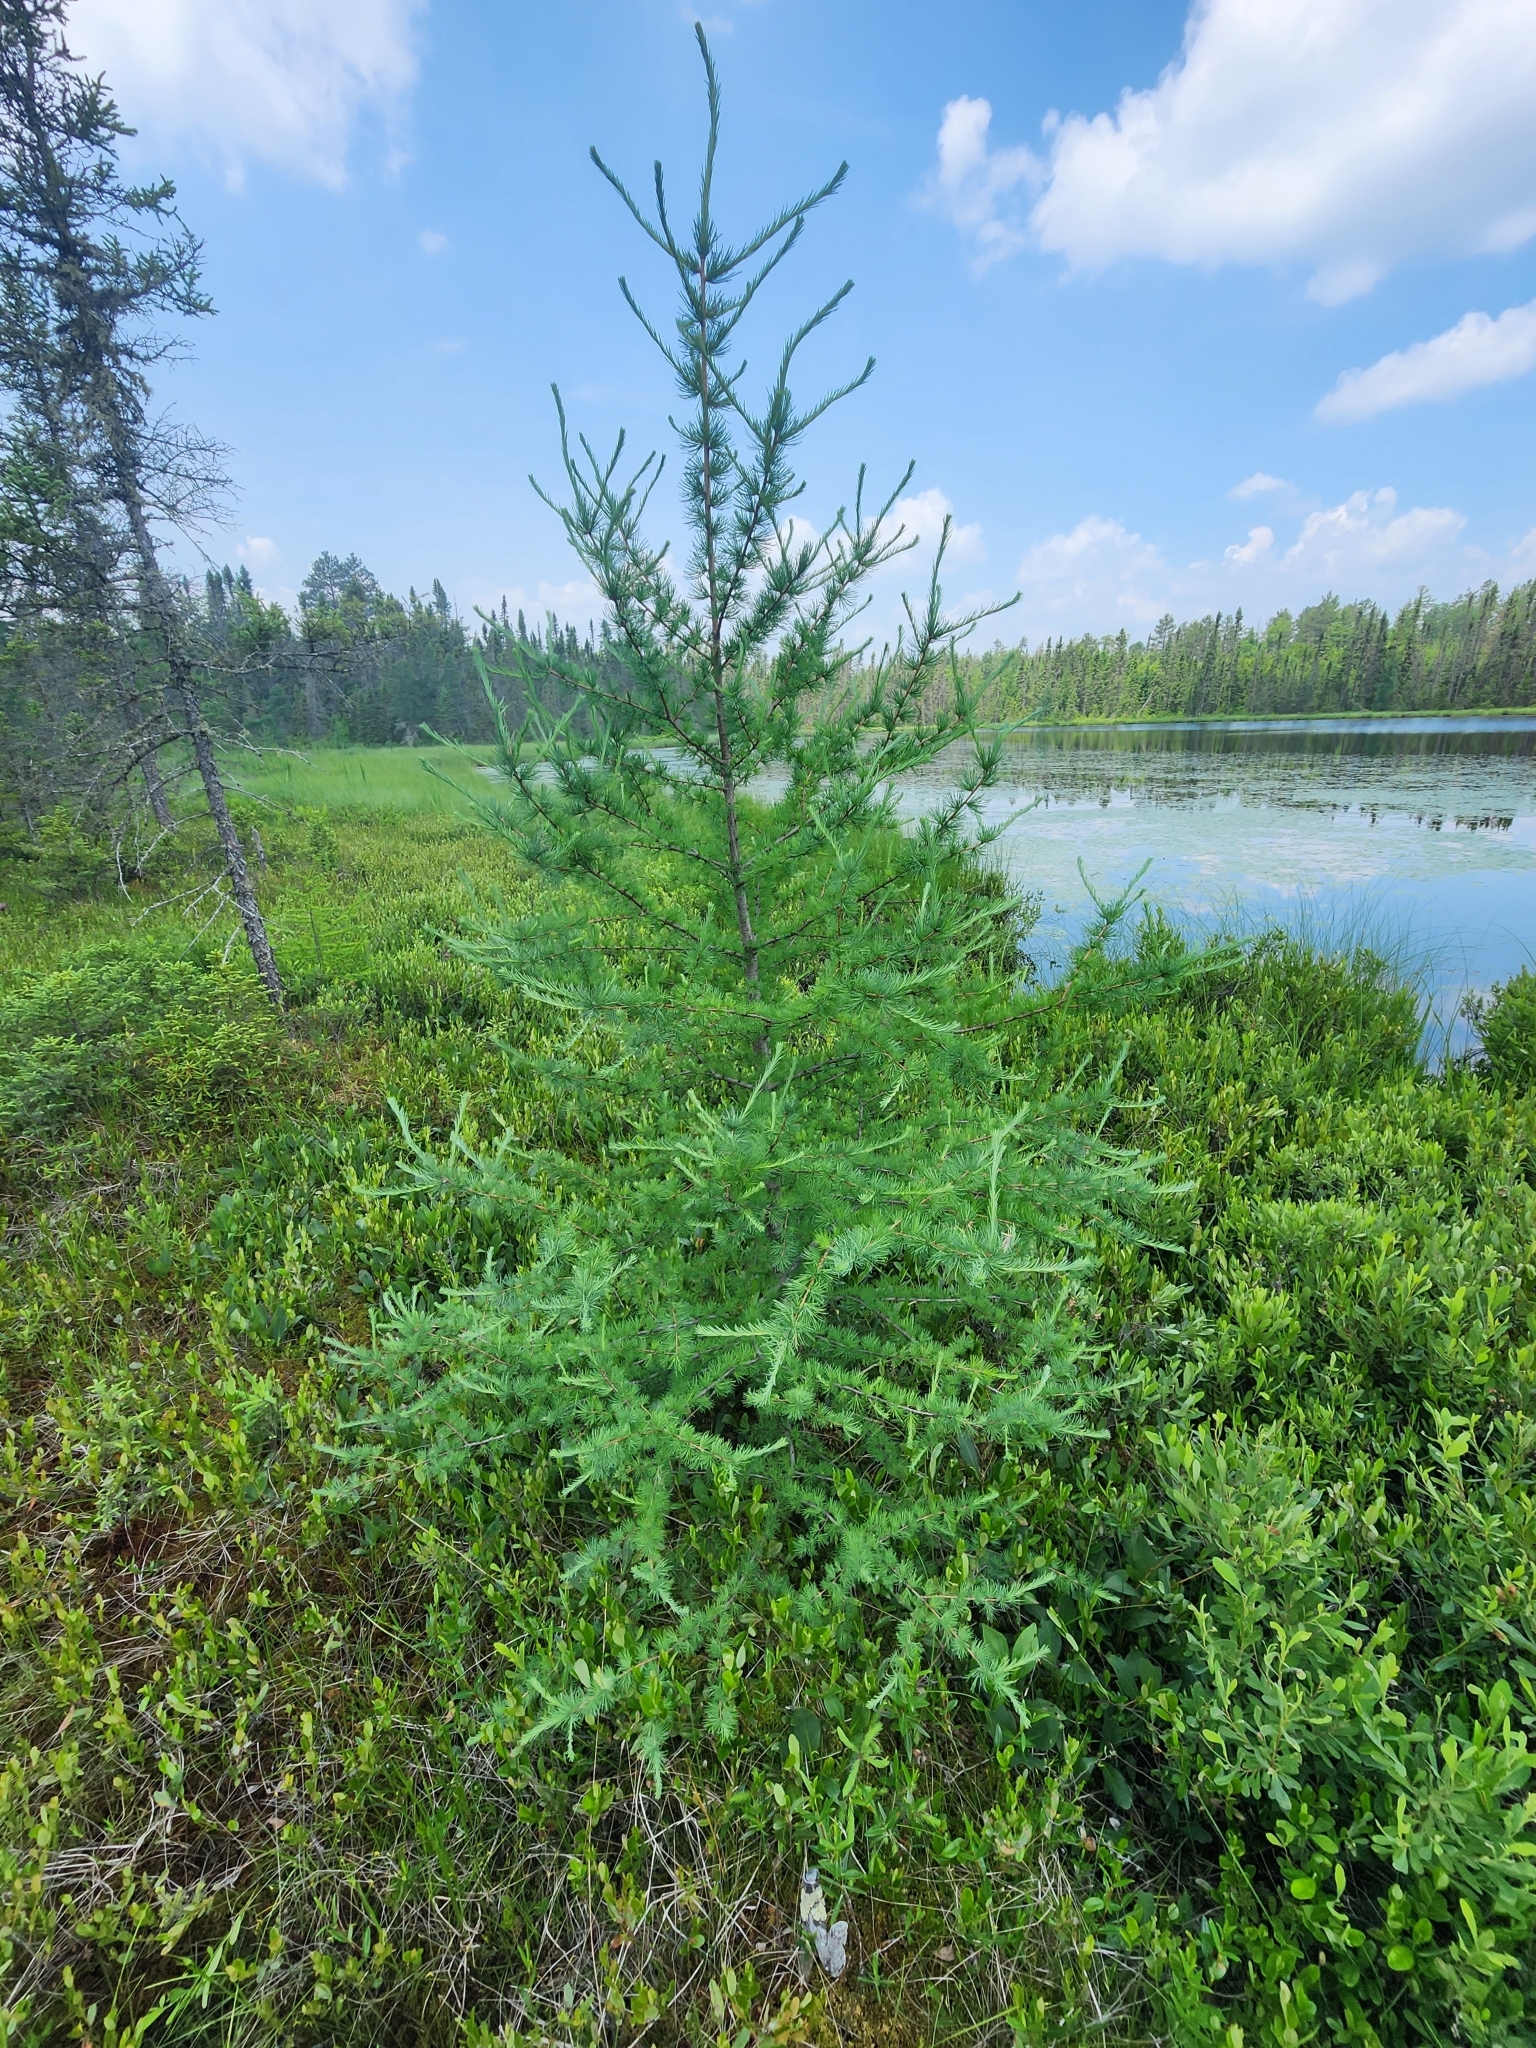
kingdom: Plantae
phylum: Tracheophyta
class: Pinopsida
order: Pinales
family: Pinaceae
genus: Larix
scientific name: Larix laricina
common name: American larch
